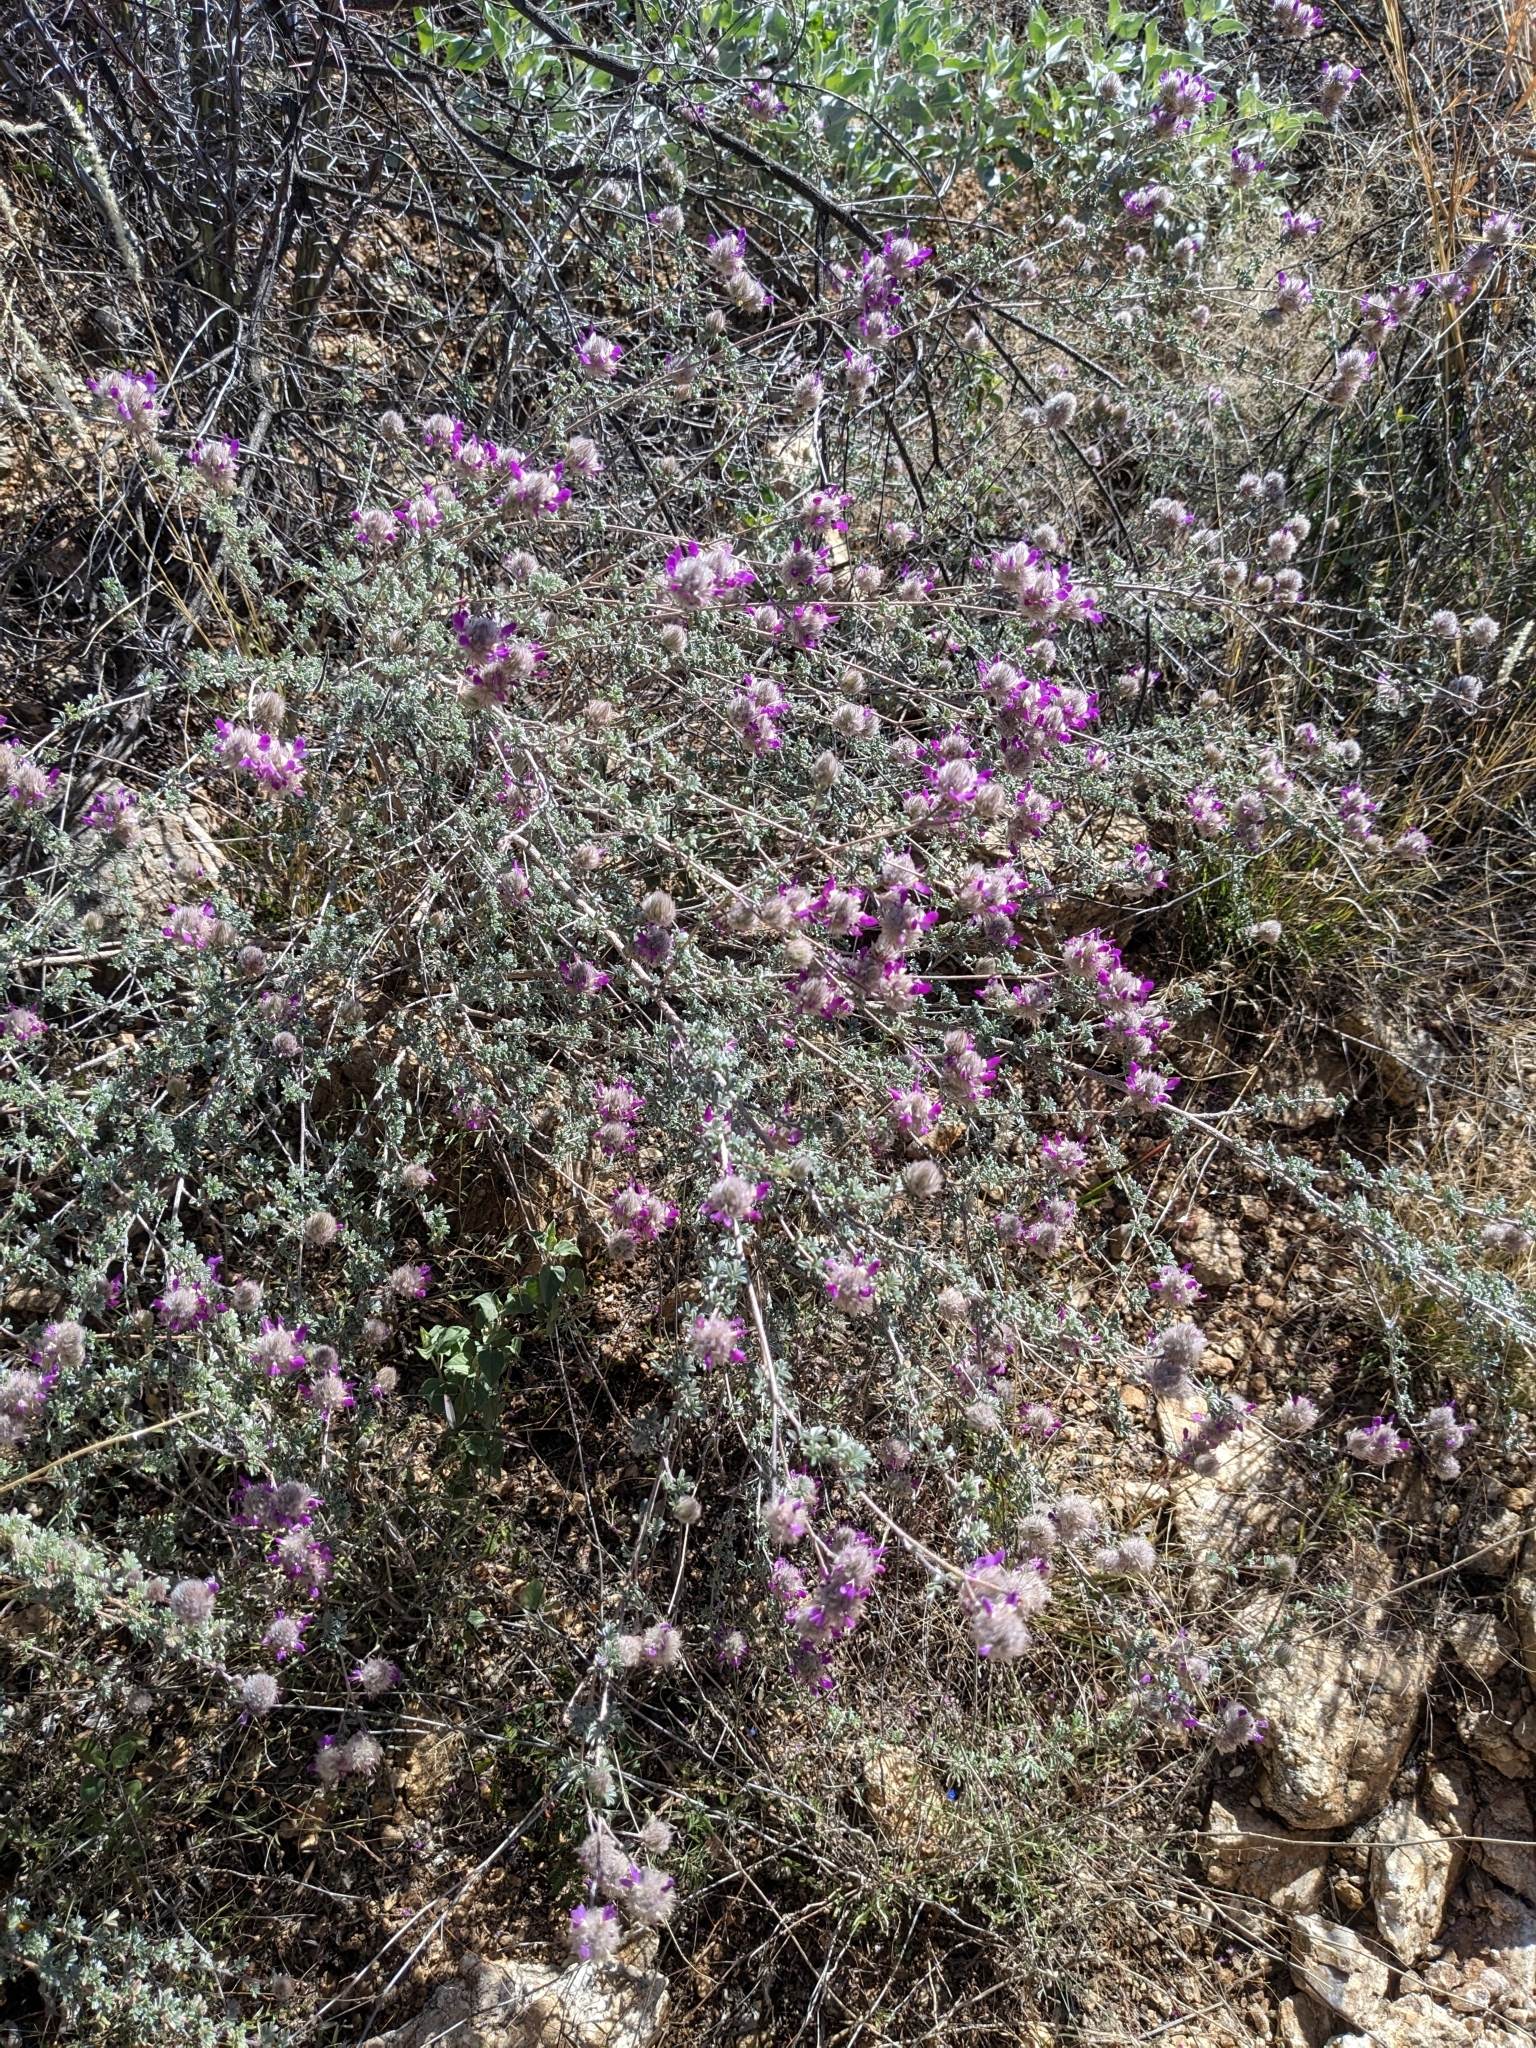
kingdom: Plantae
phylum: Tracheophyta
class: Magnoliopsida
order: Fabales
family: Fabaceae
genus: Dalea
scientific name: Dalea pulchra
